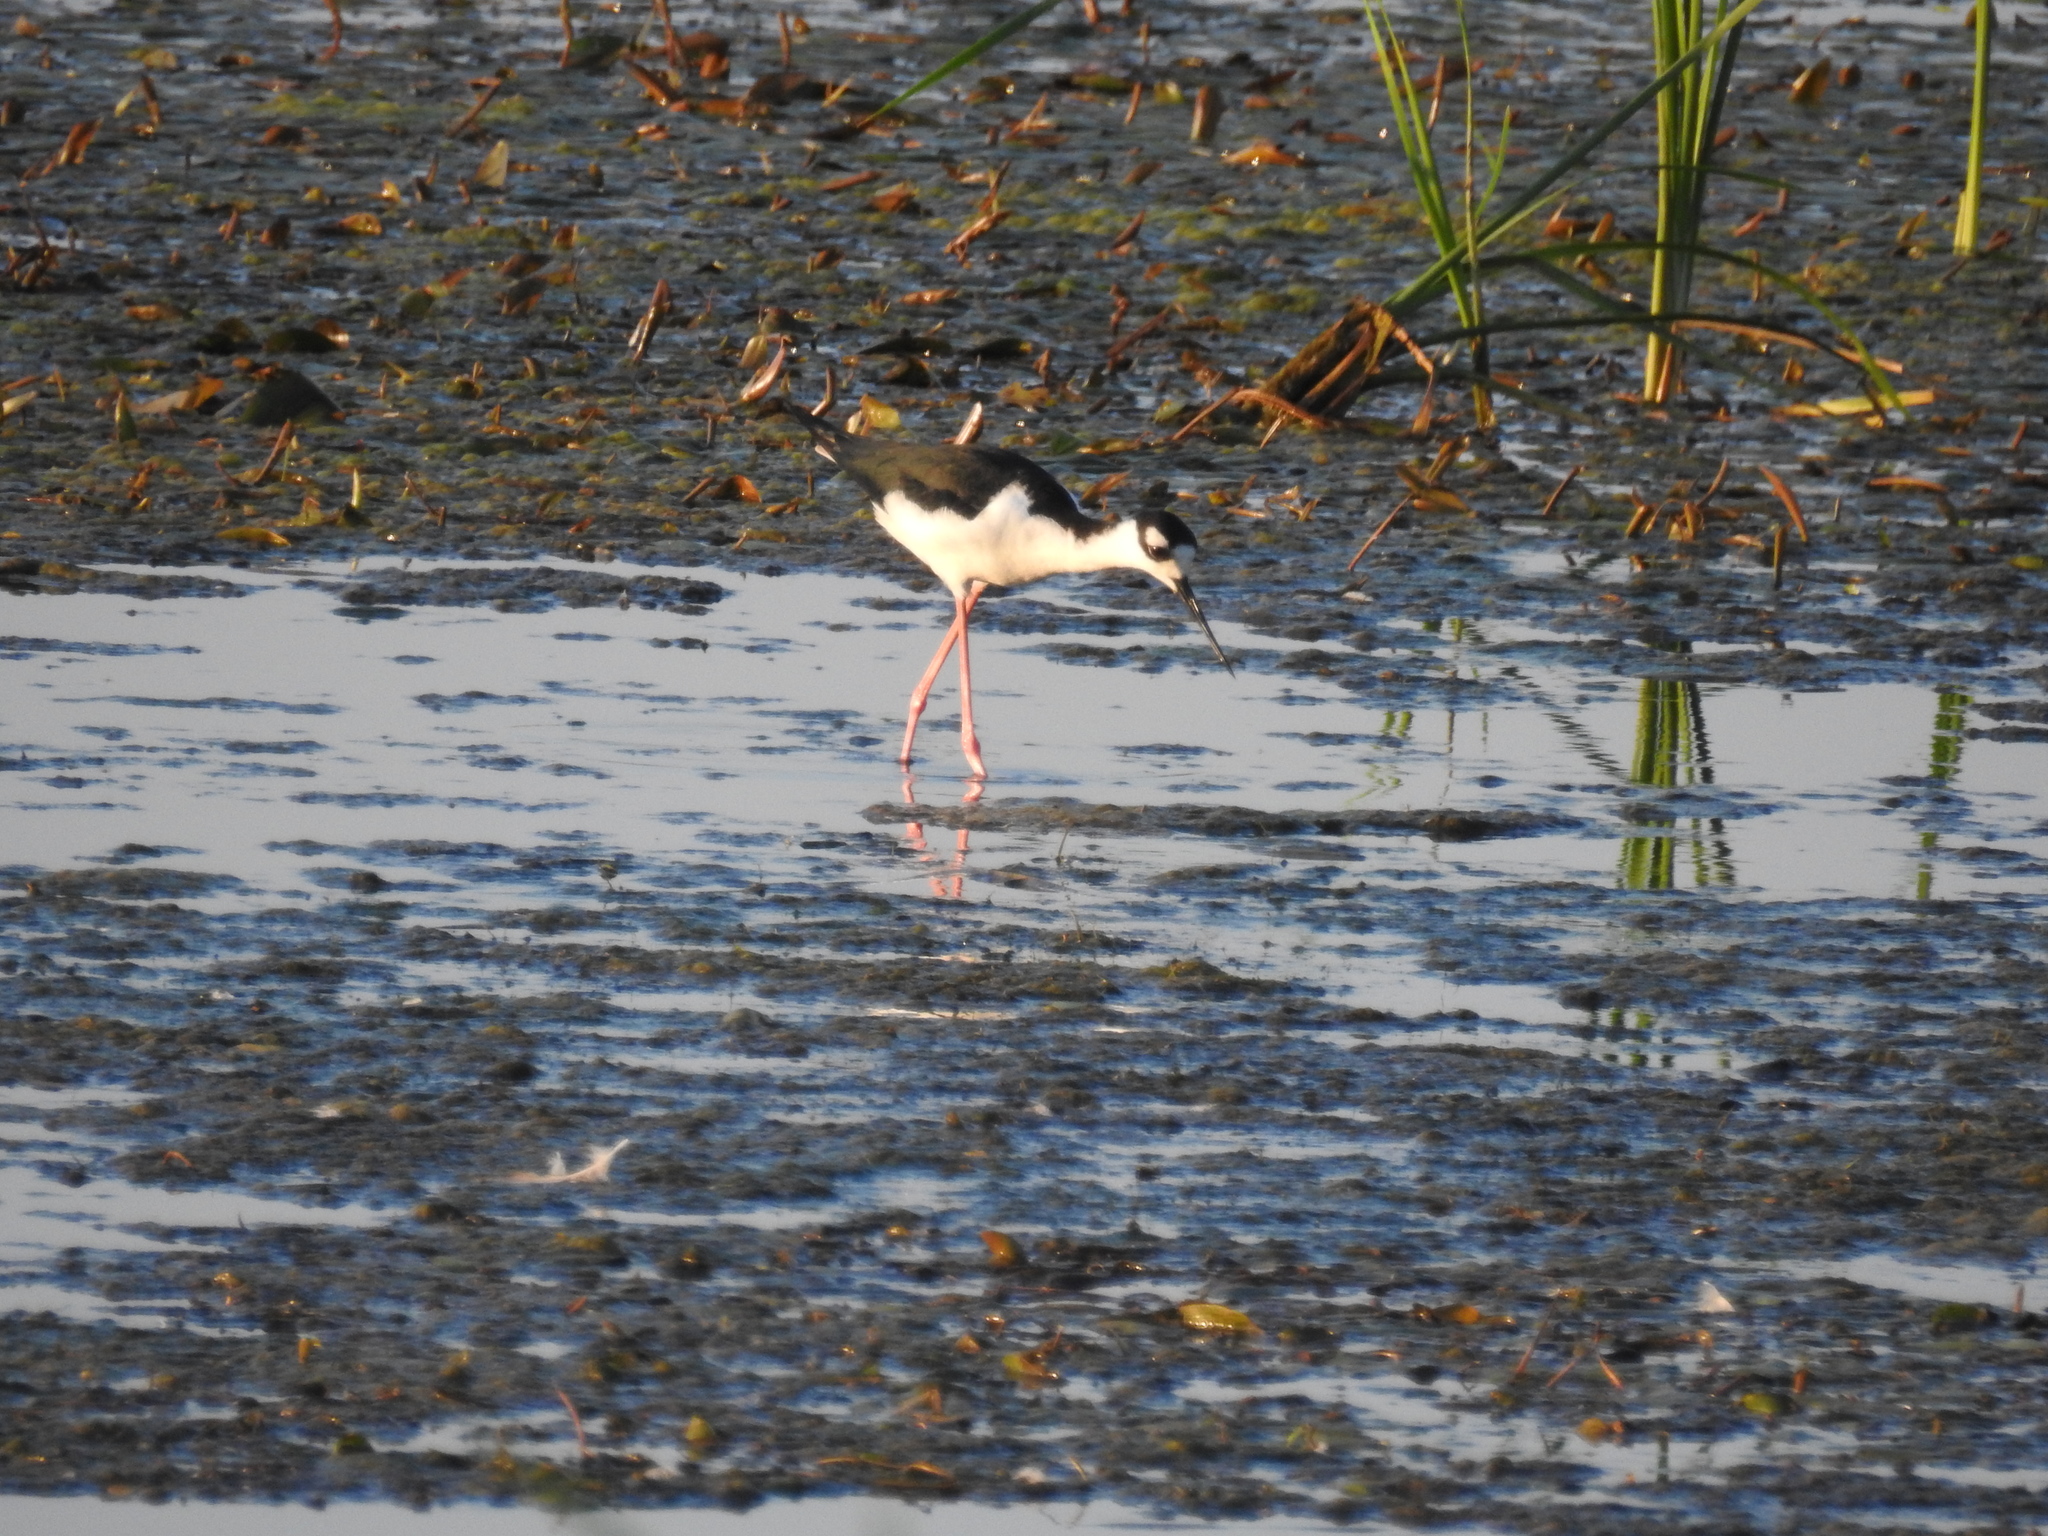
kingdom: Animalia
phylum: Chordata
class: Aves
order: Charadriiformes
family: Recurvirostridae
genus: Himantopus
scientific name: Himantopus mexicanus
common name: Black-necked stilt
